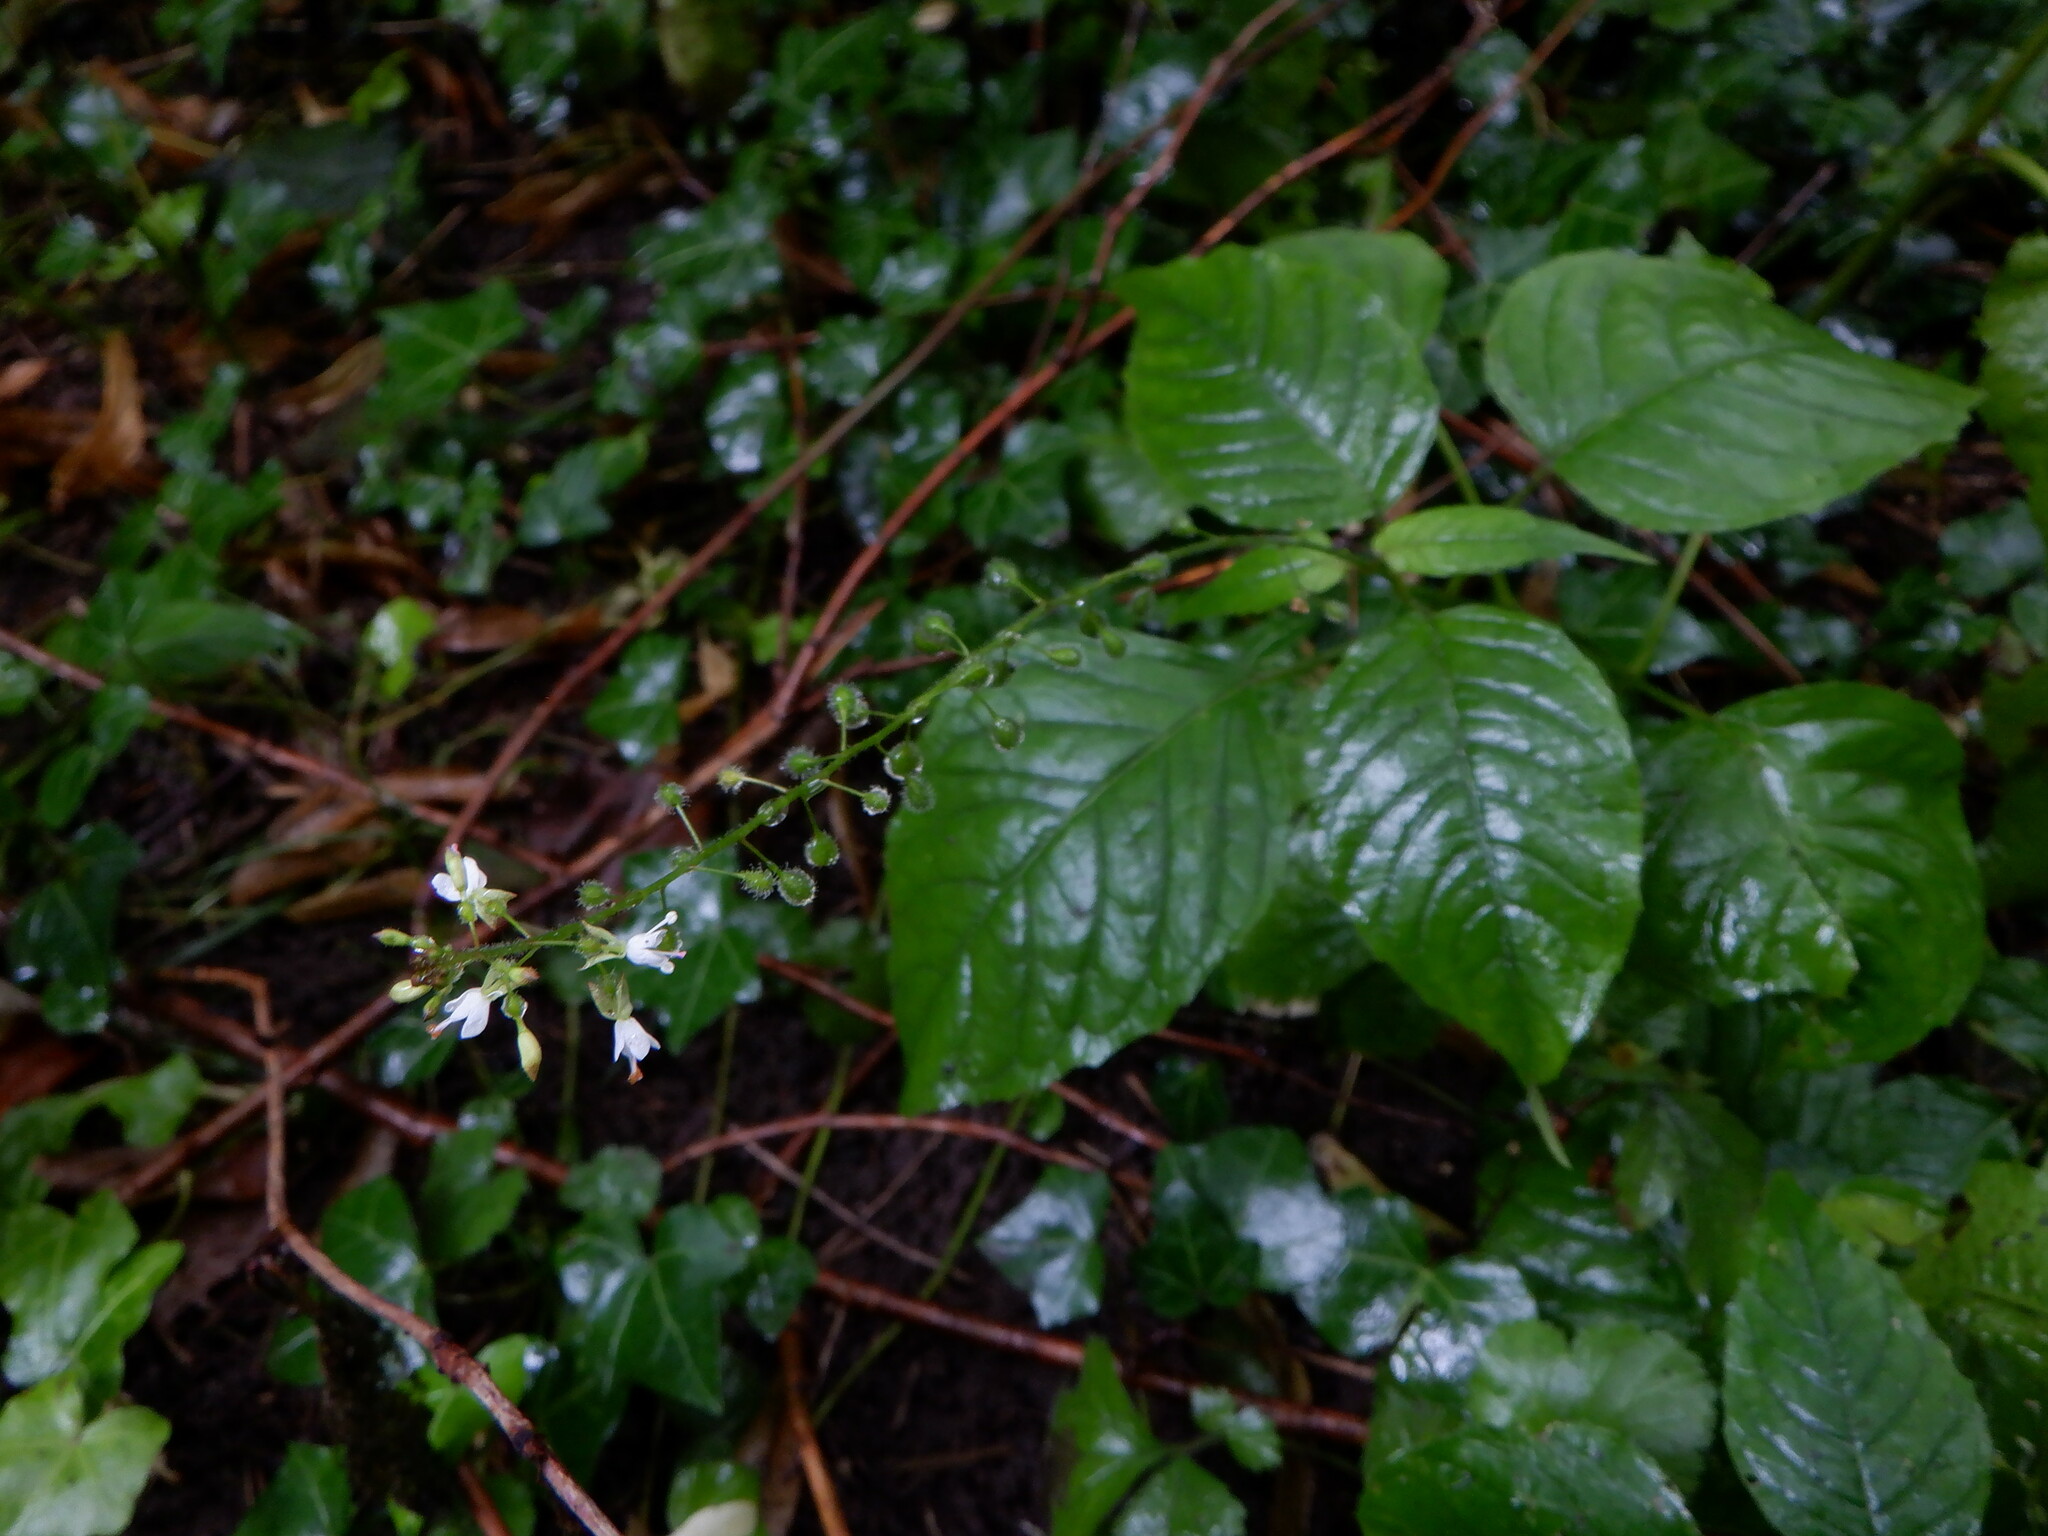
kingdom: Plantae
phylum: Tracheophyta
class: Magnoliopsida
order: Myrtales
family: Onagraceae
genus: Circaea
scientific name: Circaea lutetiana
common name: Enchanter's-nightshade
